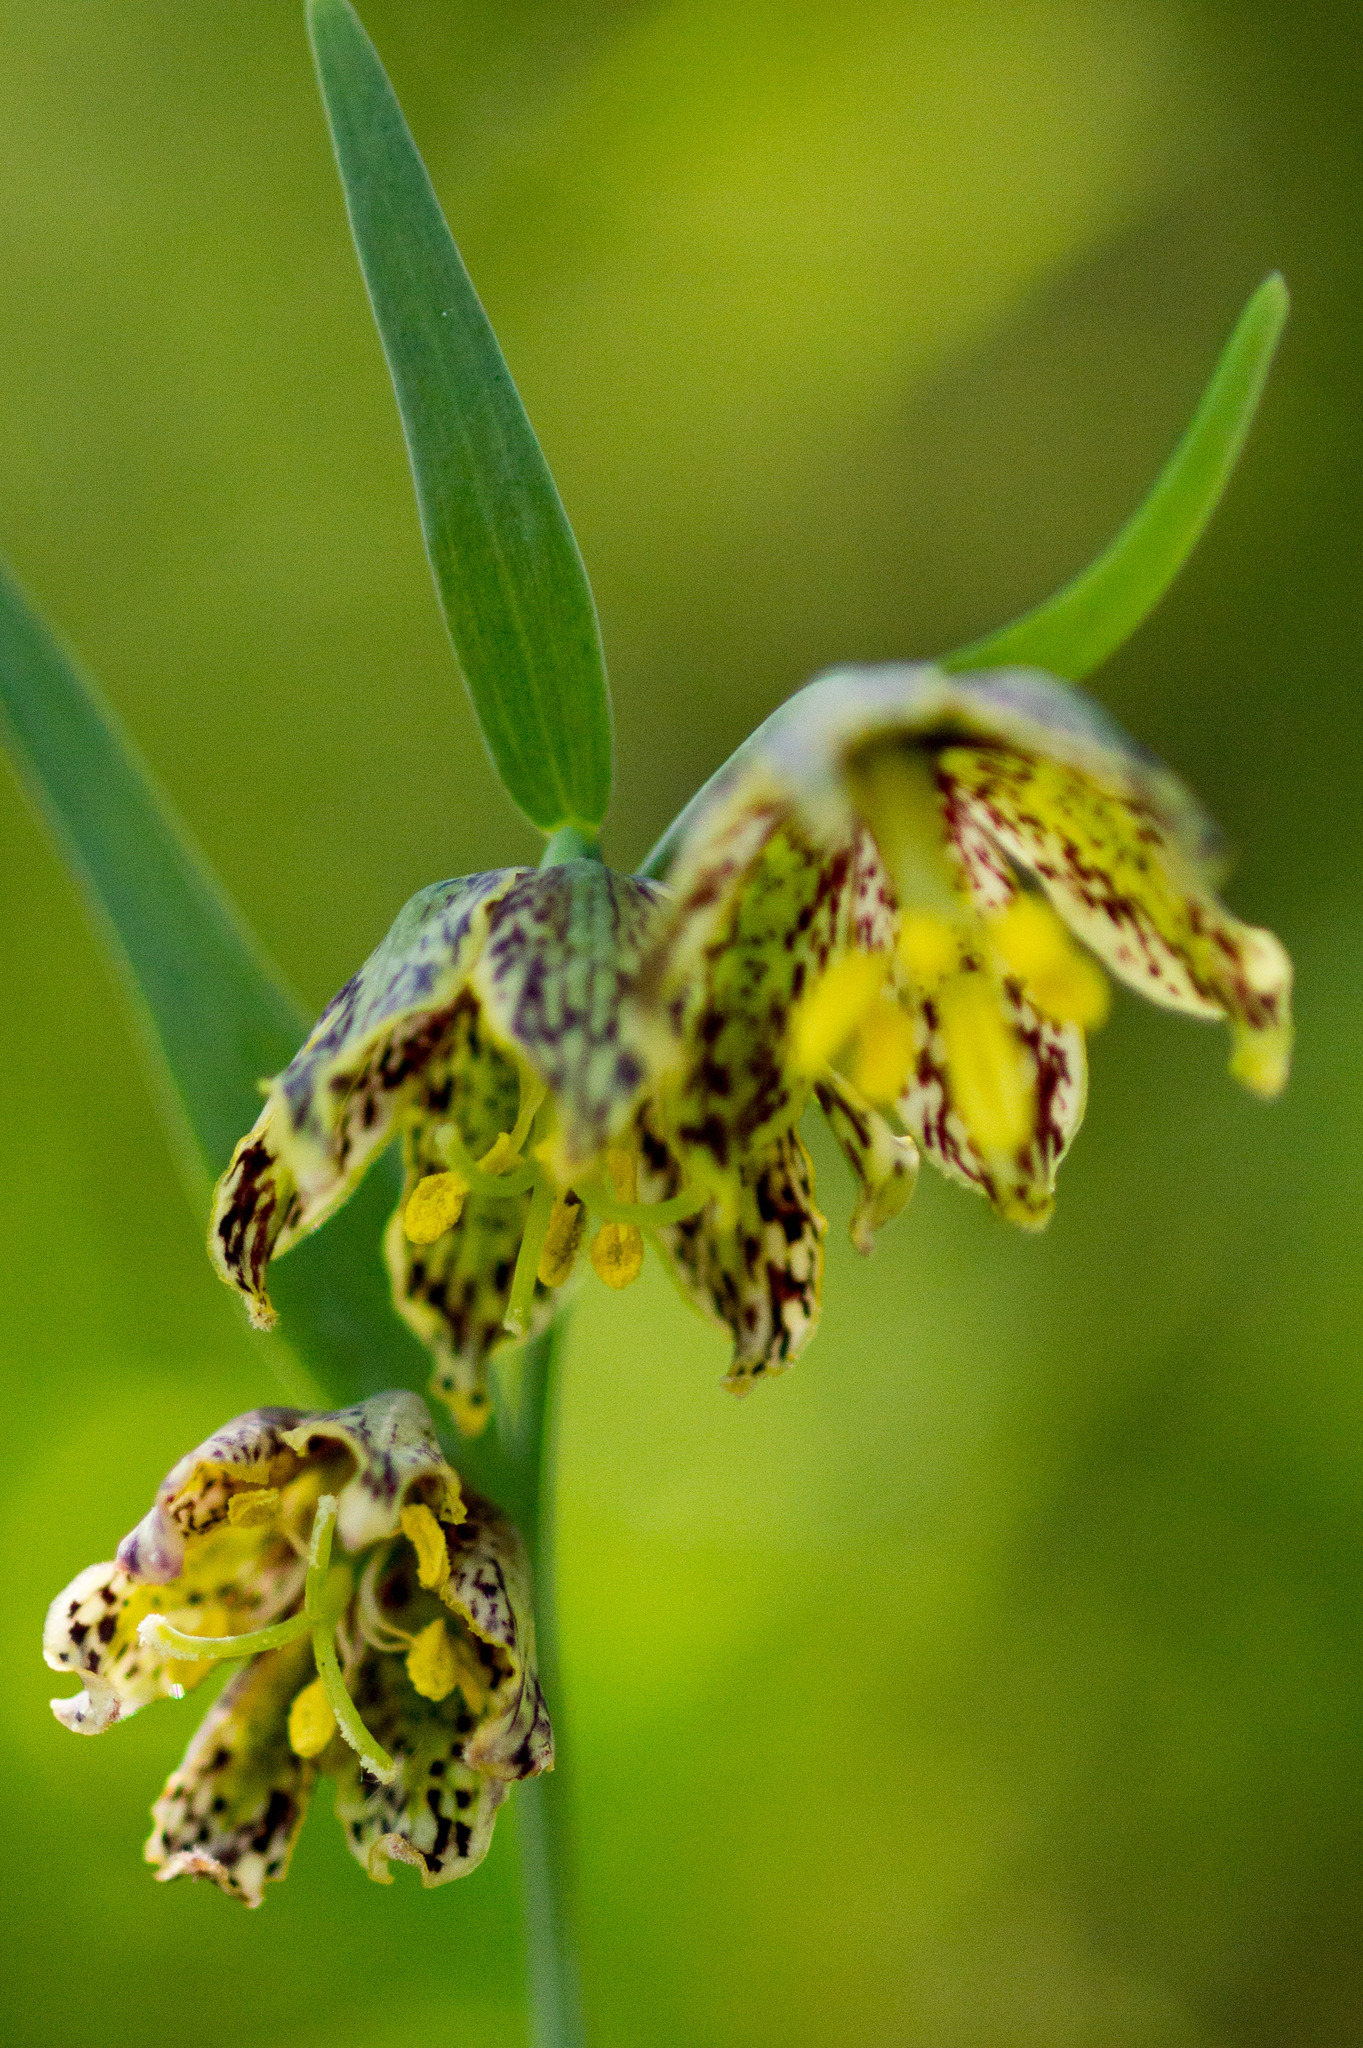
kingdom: Plantae
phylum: Tracheophyta
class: Liliopsida
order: Liliales
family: Liliaceae
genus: Fritillaria
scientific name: Fritillaria affinis
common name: Ojai fritillary
